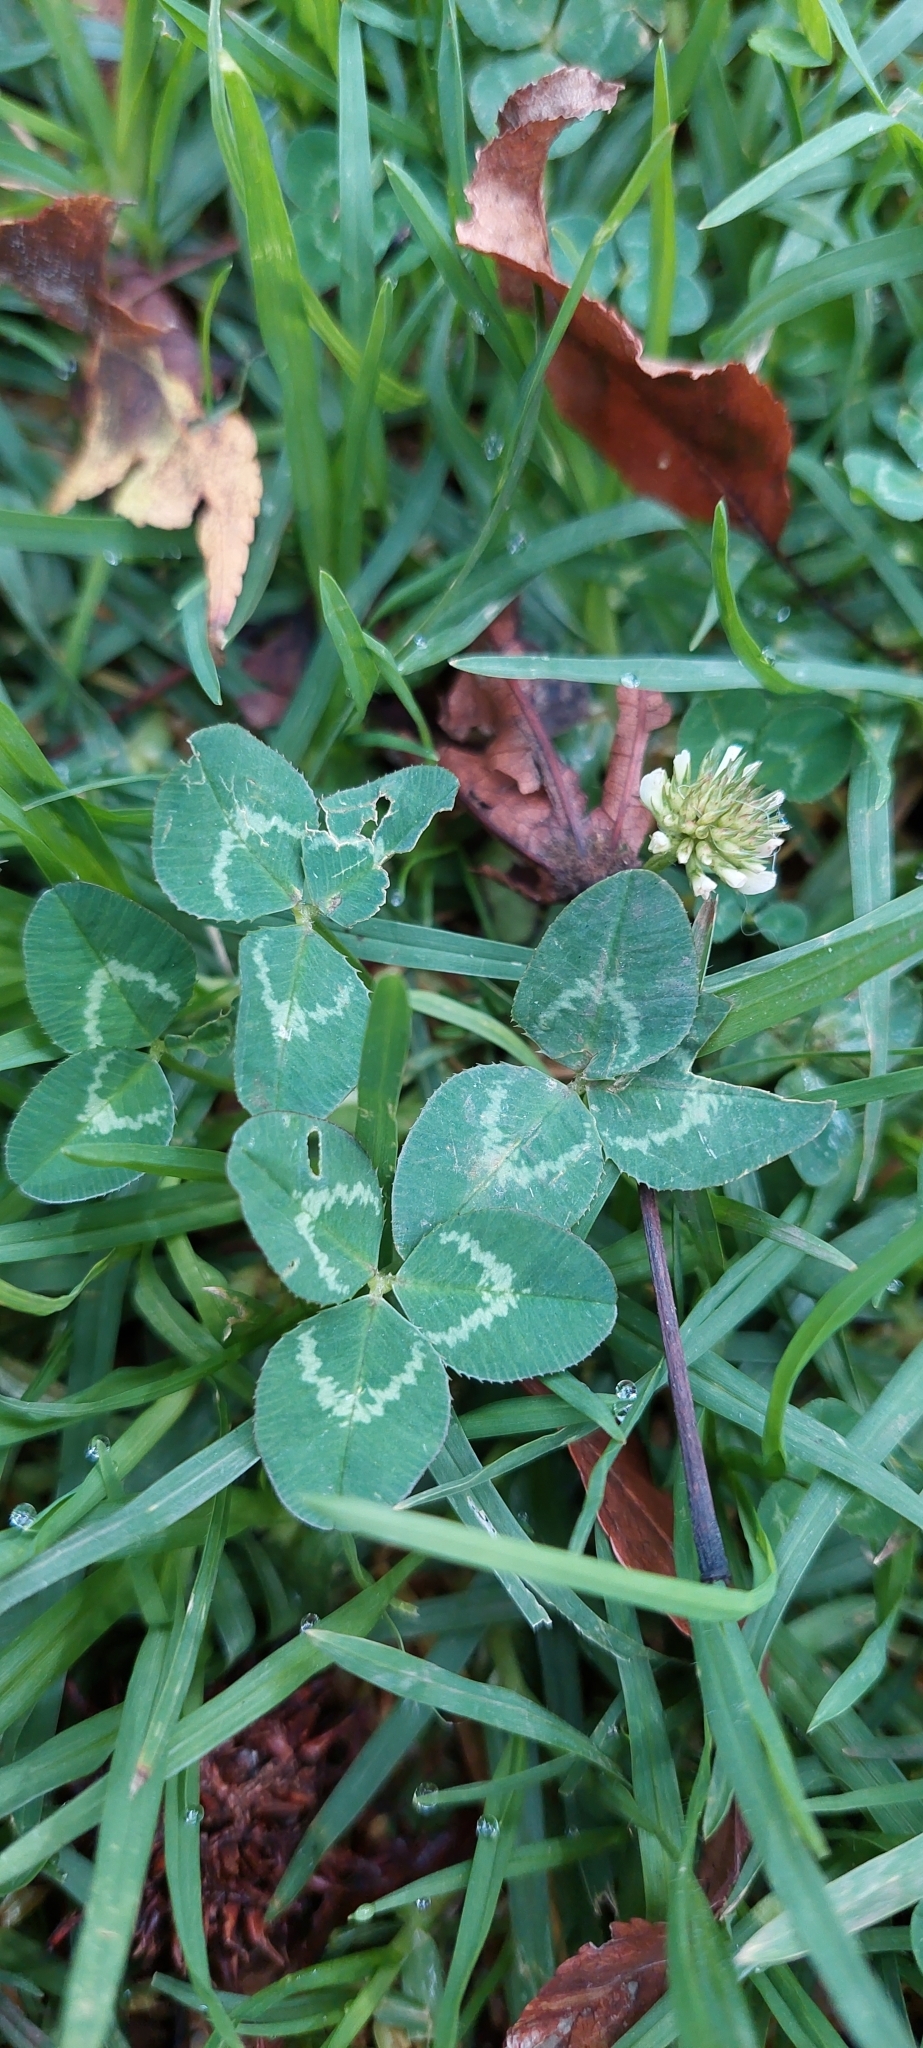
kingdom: Plantae
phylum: Tracheophyta
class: Magnoliopsida
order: Fabales
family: Fabaceae
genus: Trifolium
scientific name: Trifolium repens
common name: White clover
